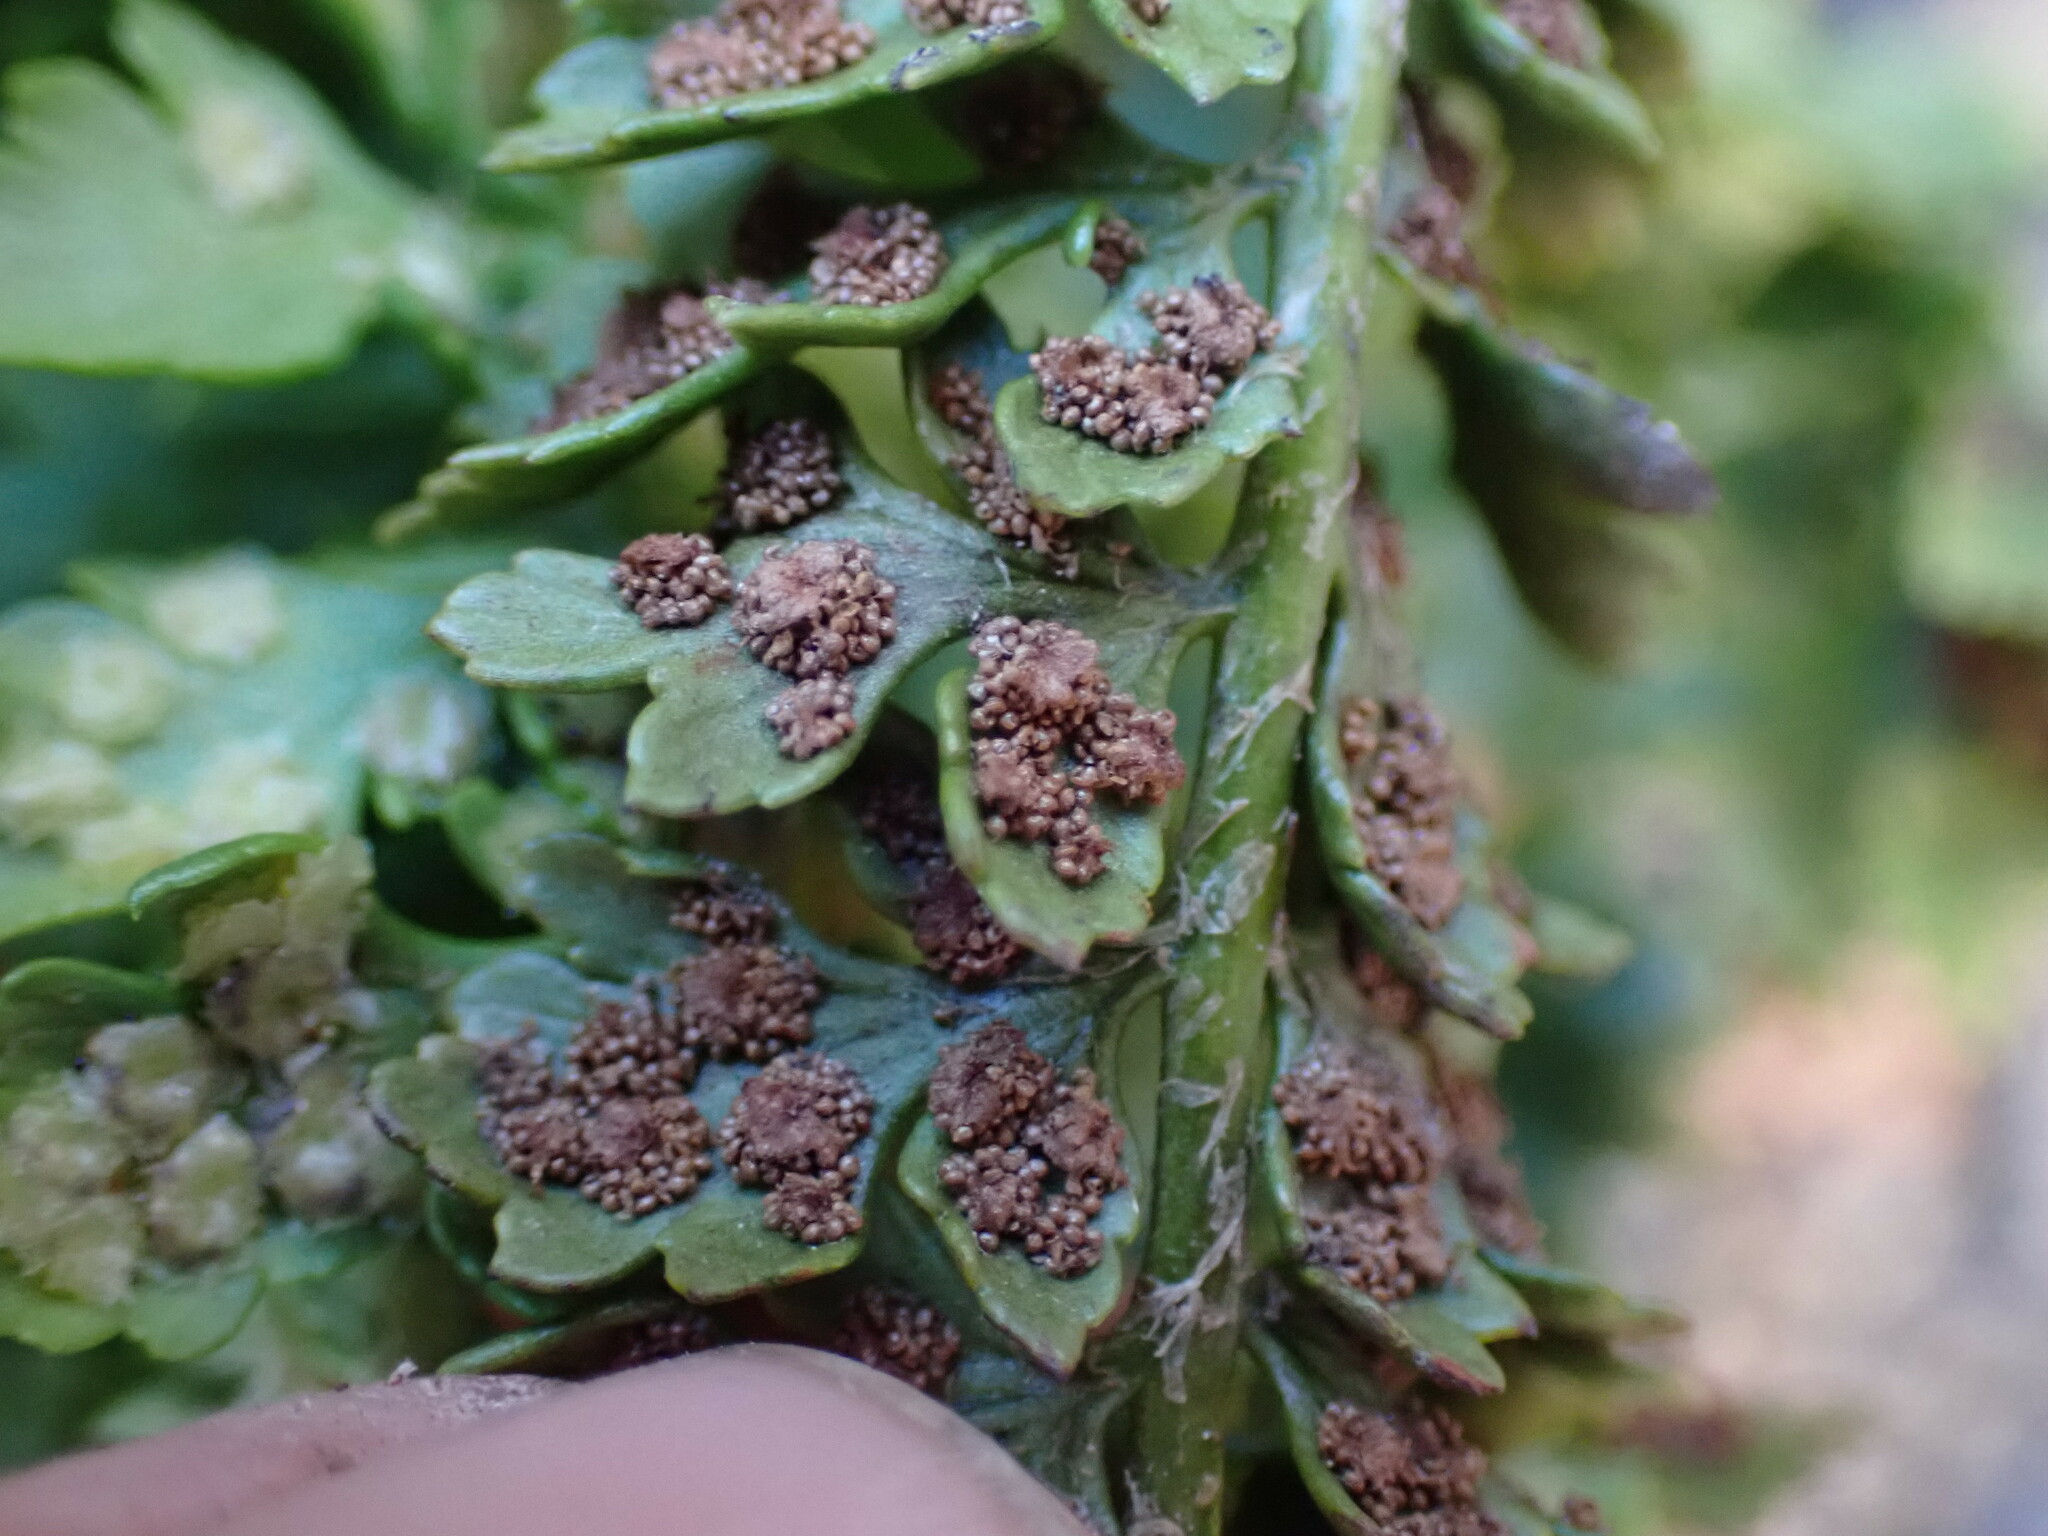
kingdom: Plantae
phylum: Tracheophyta
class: Polypodiopsida
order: Polypodiales
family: Dryopteridaceae
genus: Polystichum
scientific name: Polystichum kruckebergii
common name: Kruckeberg's holly fern
